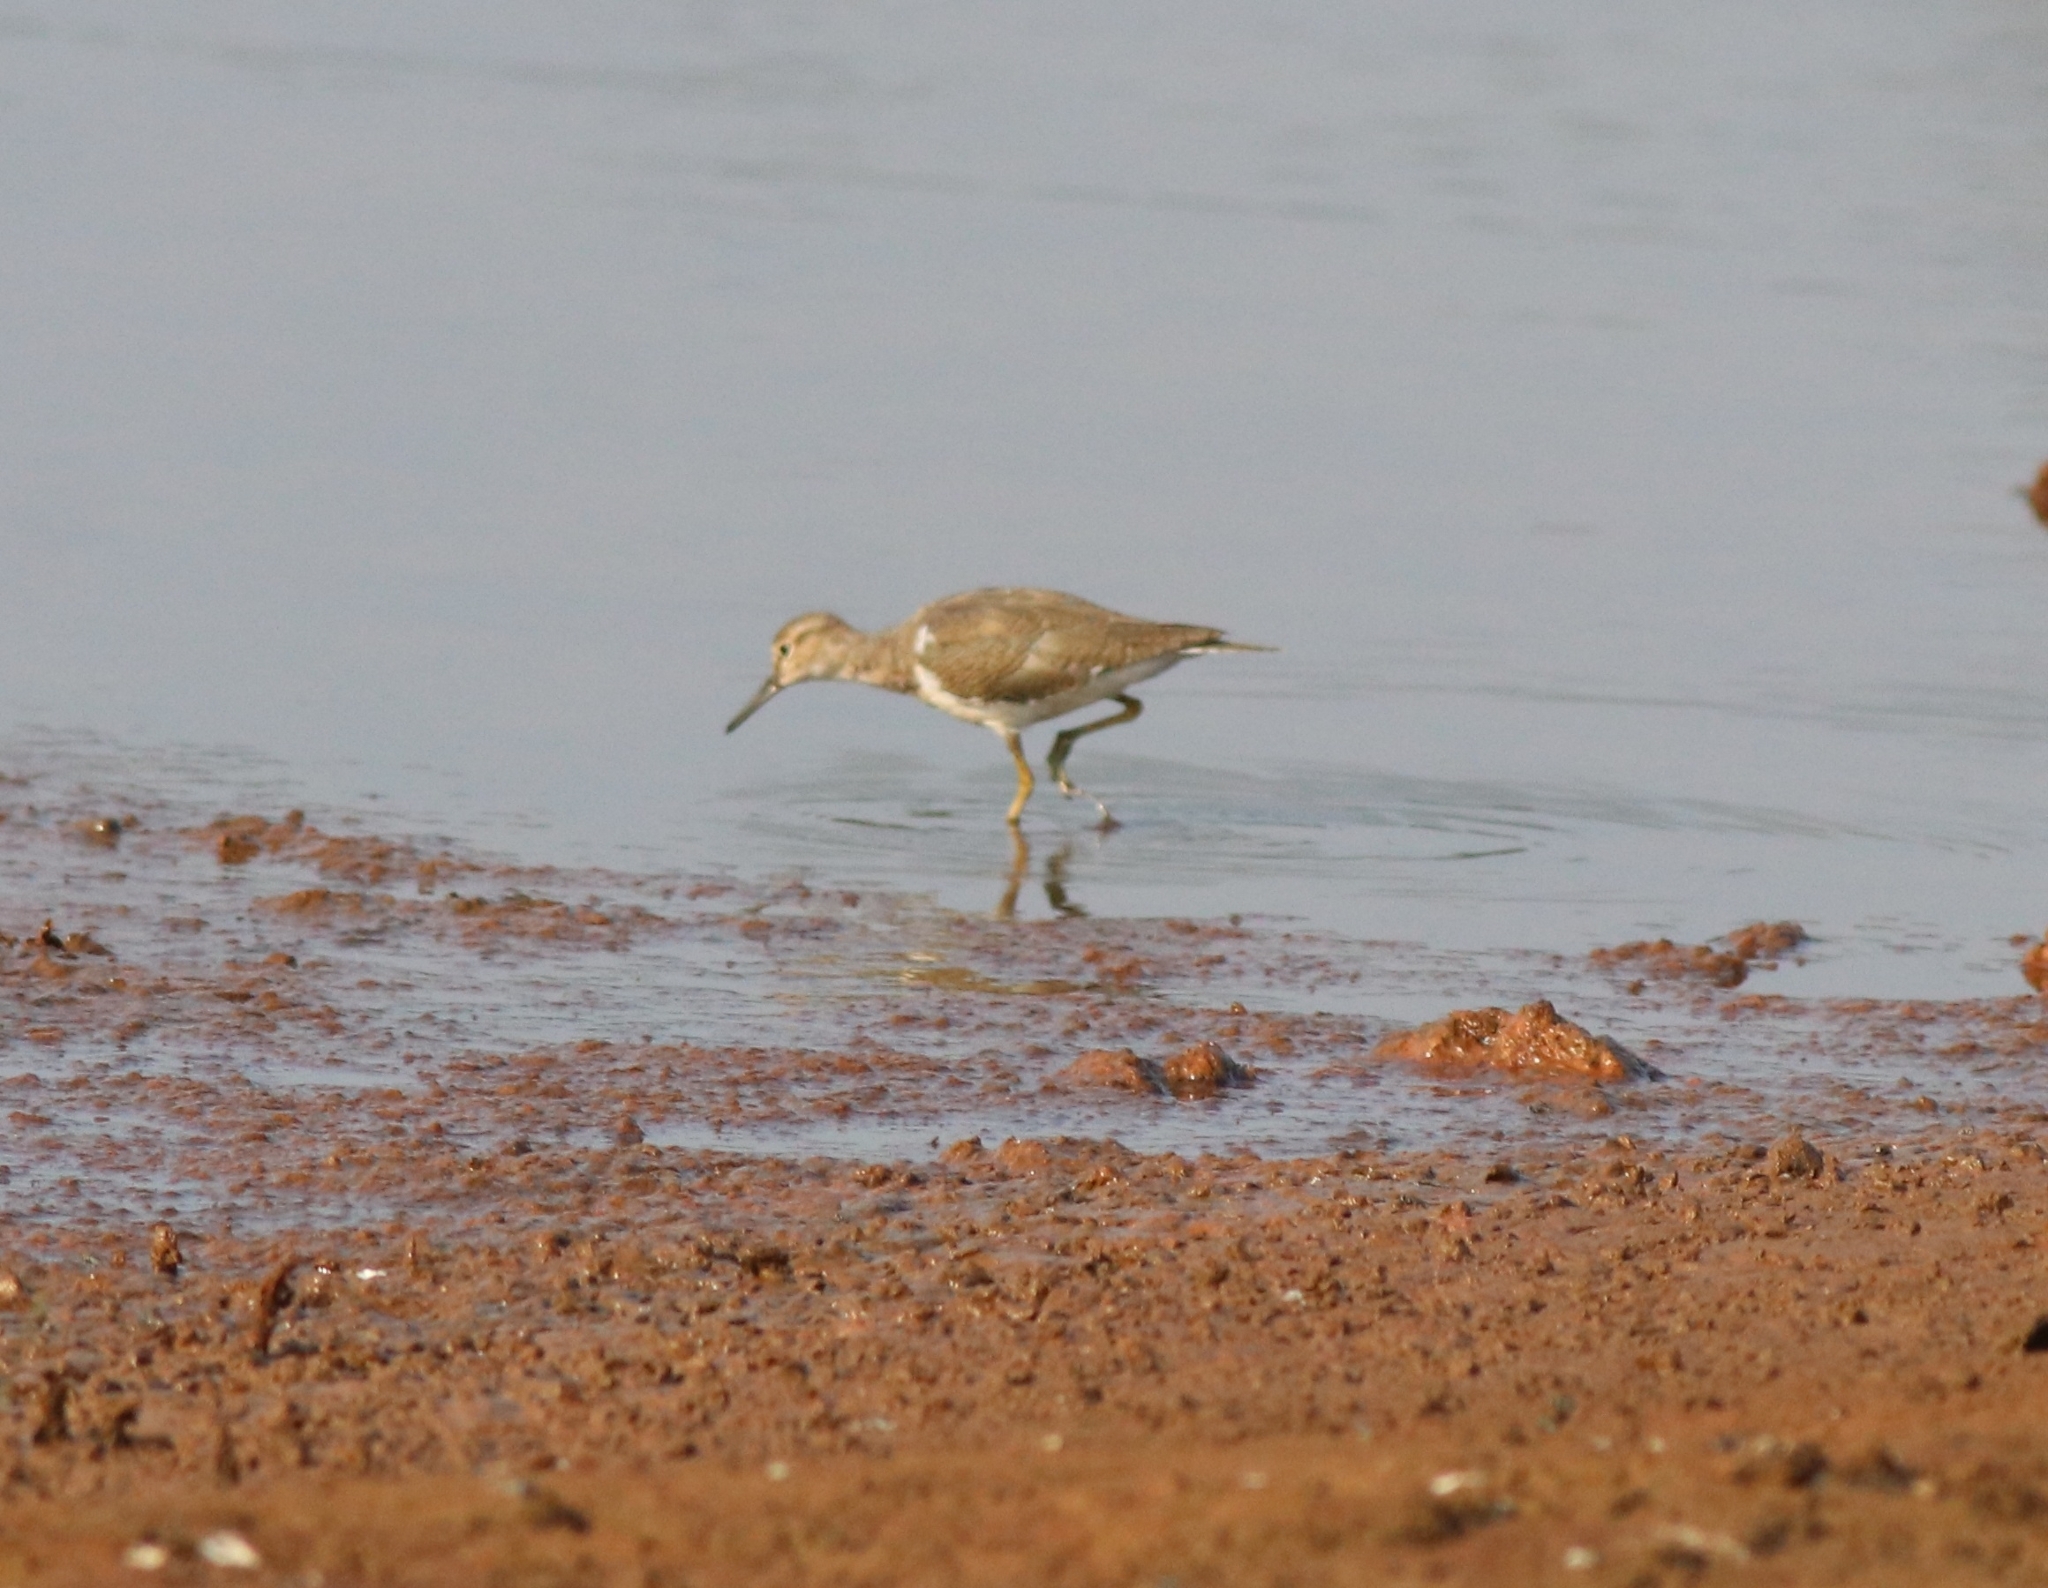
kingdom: Animalia
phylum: Chordata
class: Aves
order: Charadriiformes
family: Scolopacidae
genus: Actitis
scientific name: Actitis hypoleucos
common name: Common sandpiper
